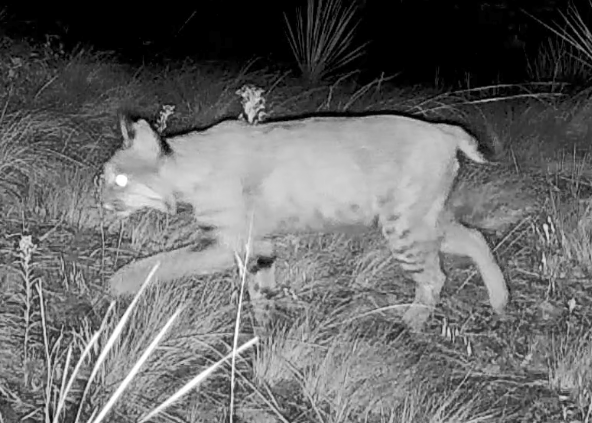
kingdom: Animalia
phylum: Chordata
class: Mammalia
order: Carnivora
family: Felidae
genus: Lynx
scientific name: Lynx rufus
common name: Bobcat
